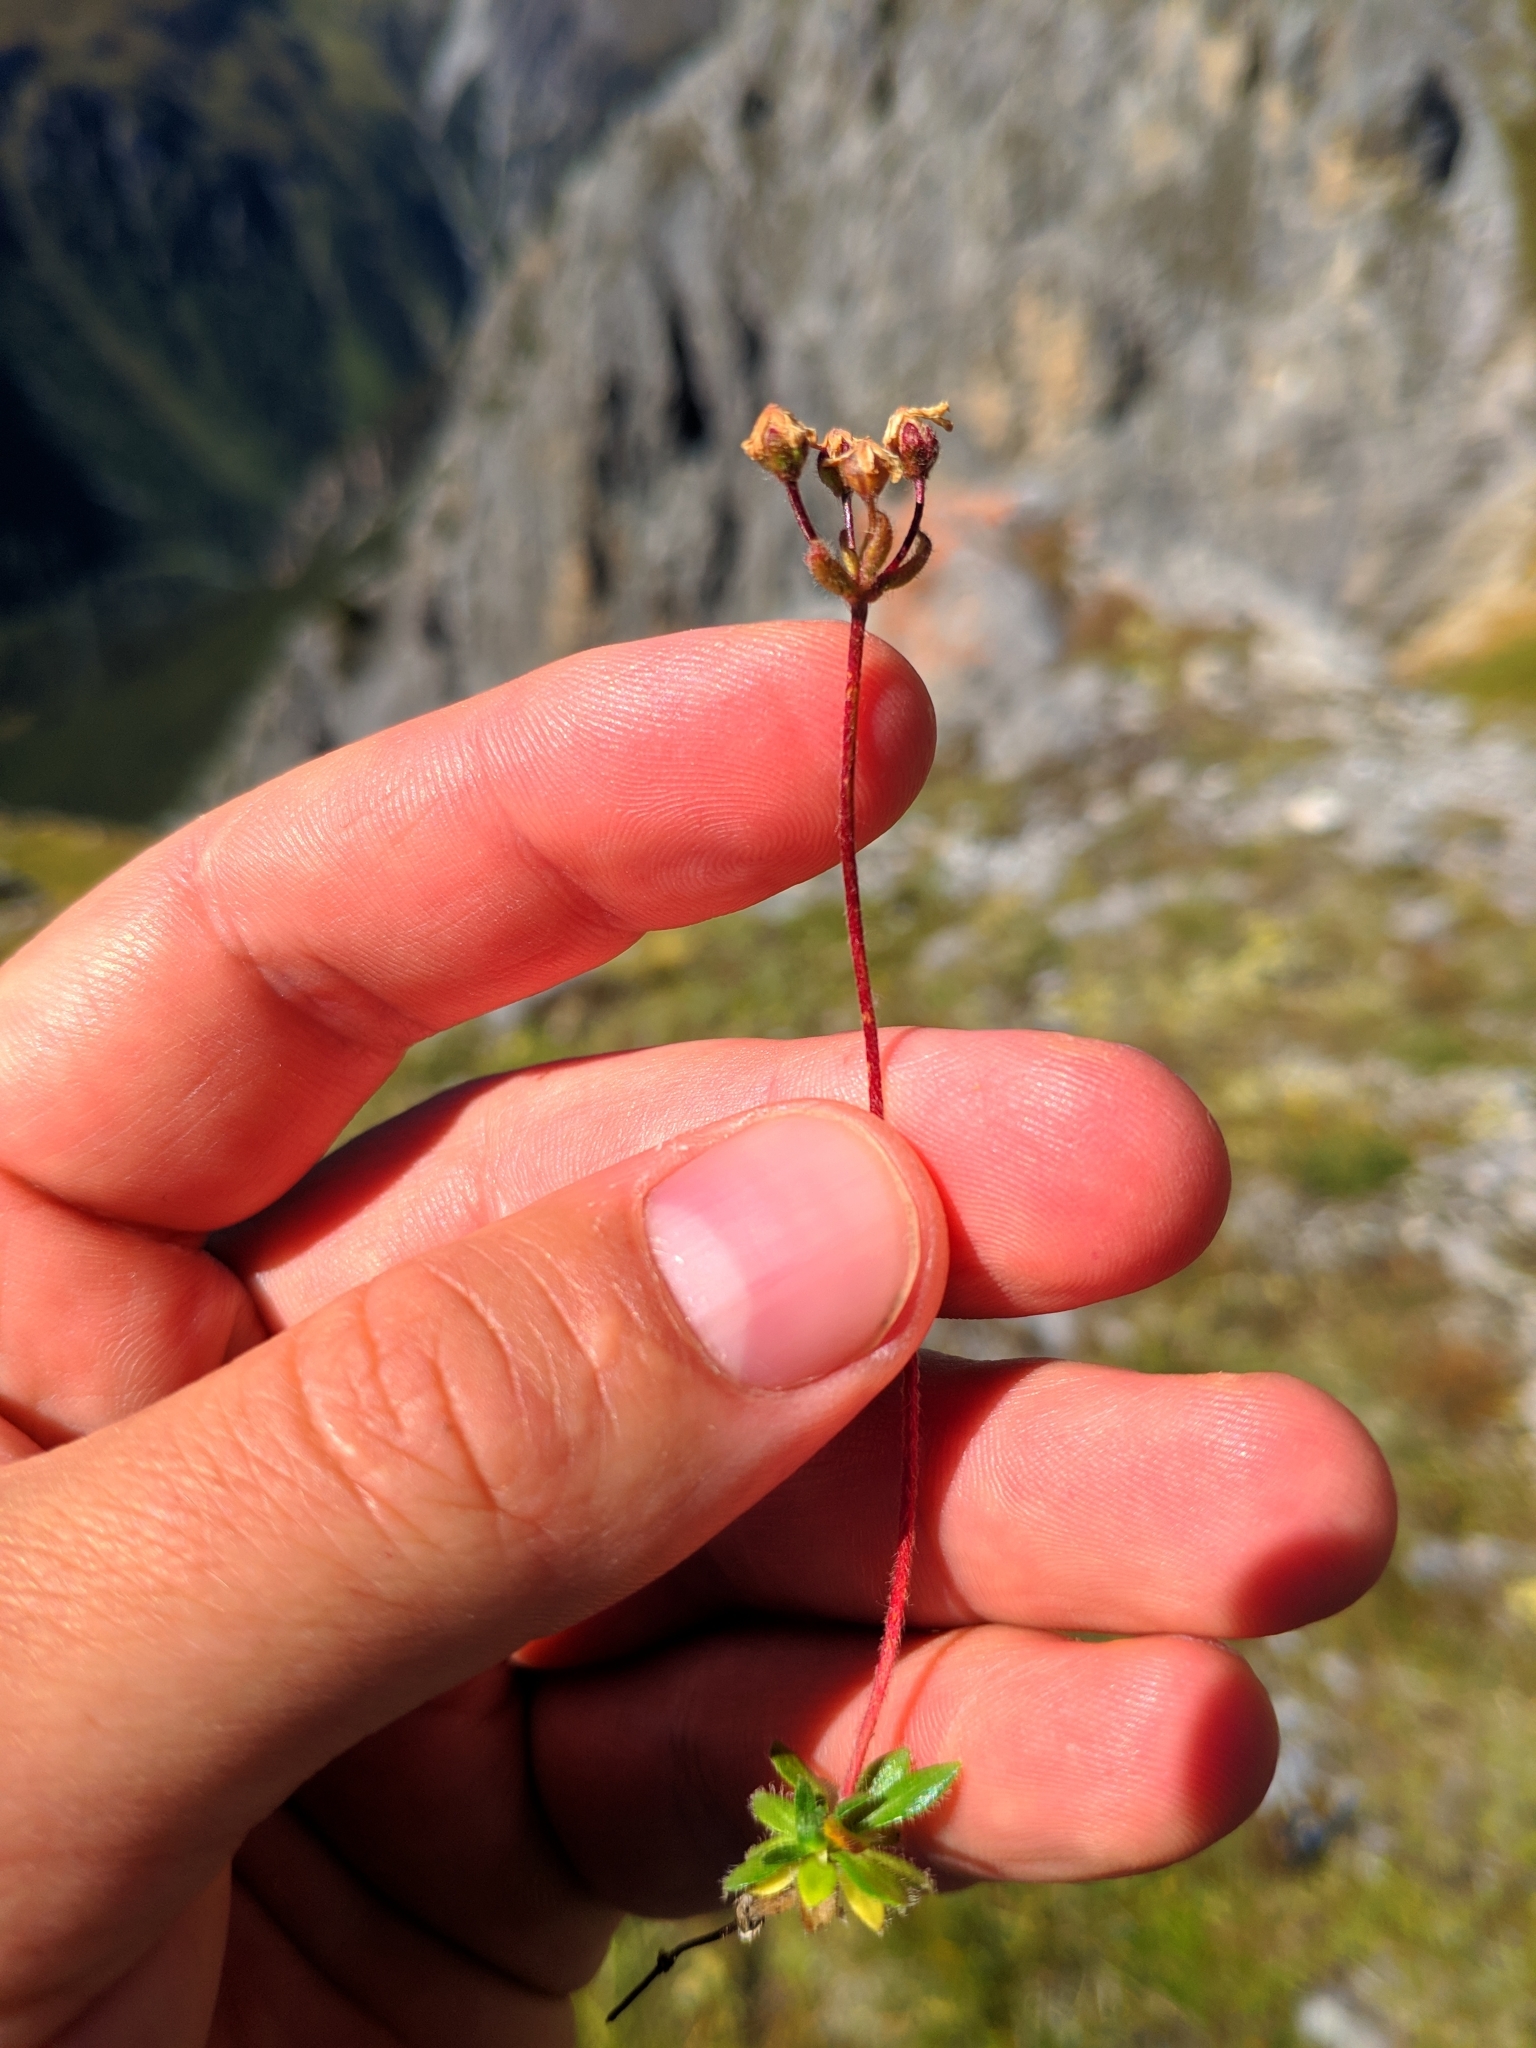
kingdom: Plantae
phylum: Tracheophyta
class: Magnoliopsida
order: Ericales
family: Primulaceae
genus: Androsace
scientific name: Androsace chamaejasme
